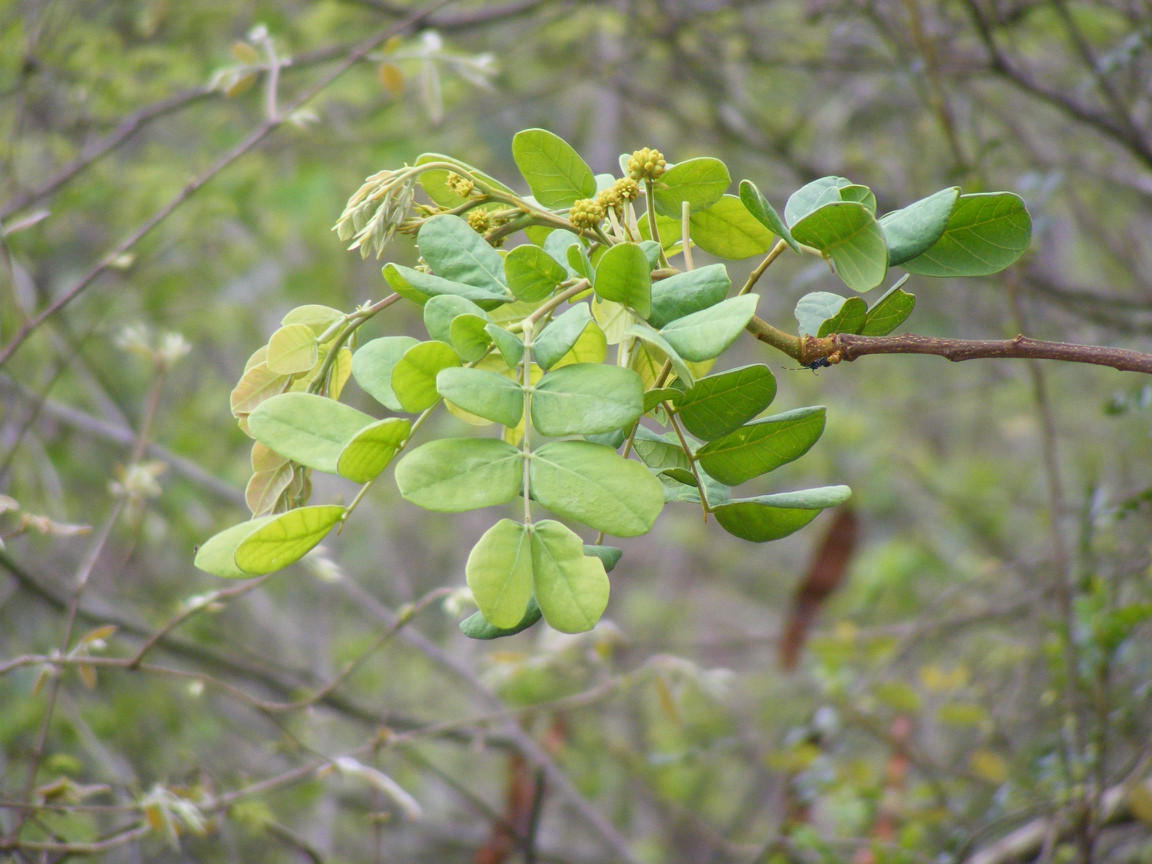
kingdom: Plantae
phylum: Tracheophyta
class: Magnoliopsida
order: Fabales
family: Fabaceae
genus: Albizia
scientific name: Albizia versicolor
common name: Poisonpod
